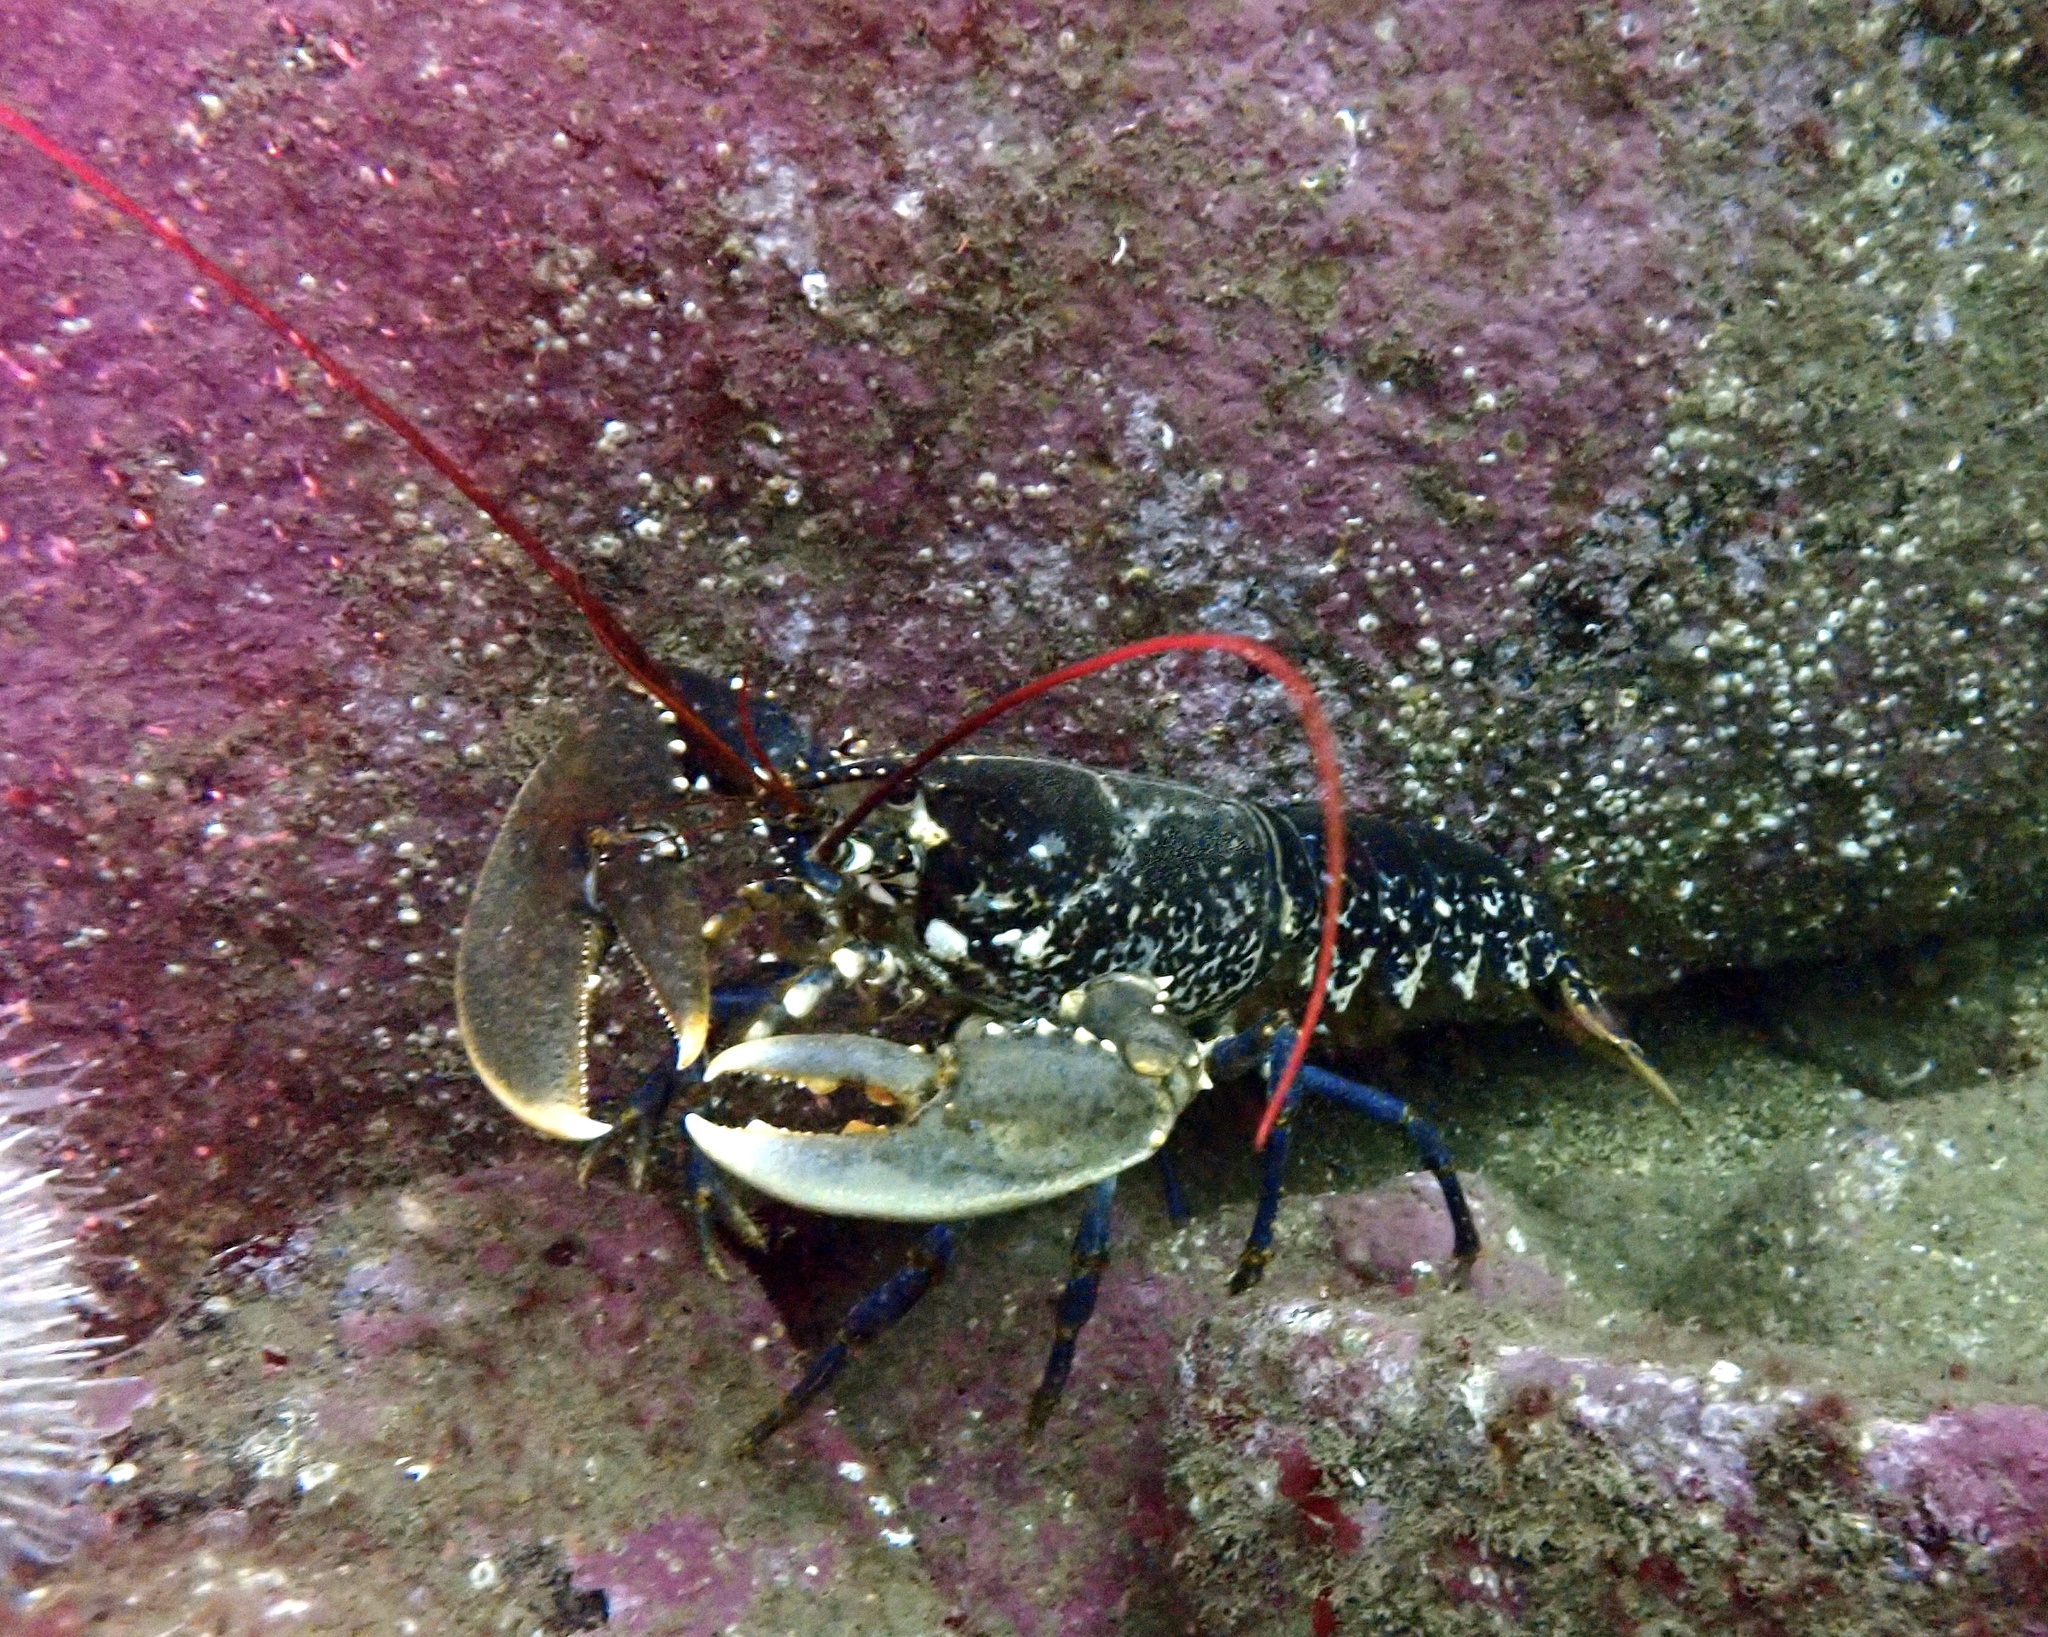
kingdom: Animalia
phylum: Arthropoda
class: Malacostraca
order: Decapoda
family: Nephropidae
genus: Homarus
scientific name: Homarus gammarus
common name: European lobster
